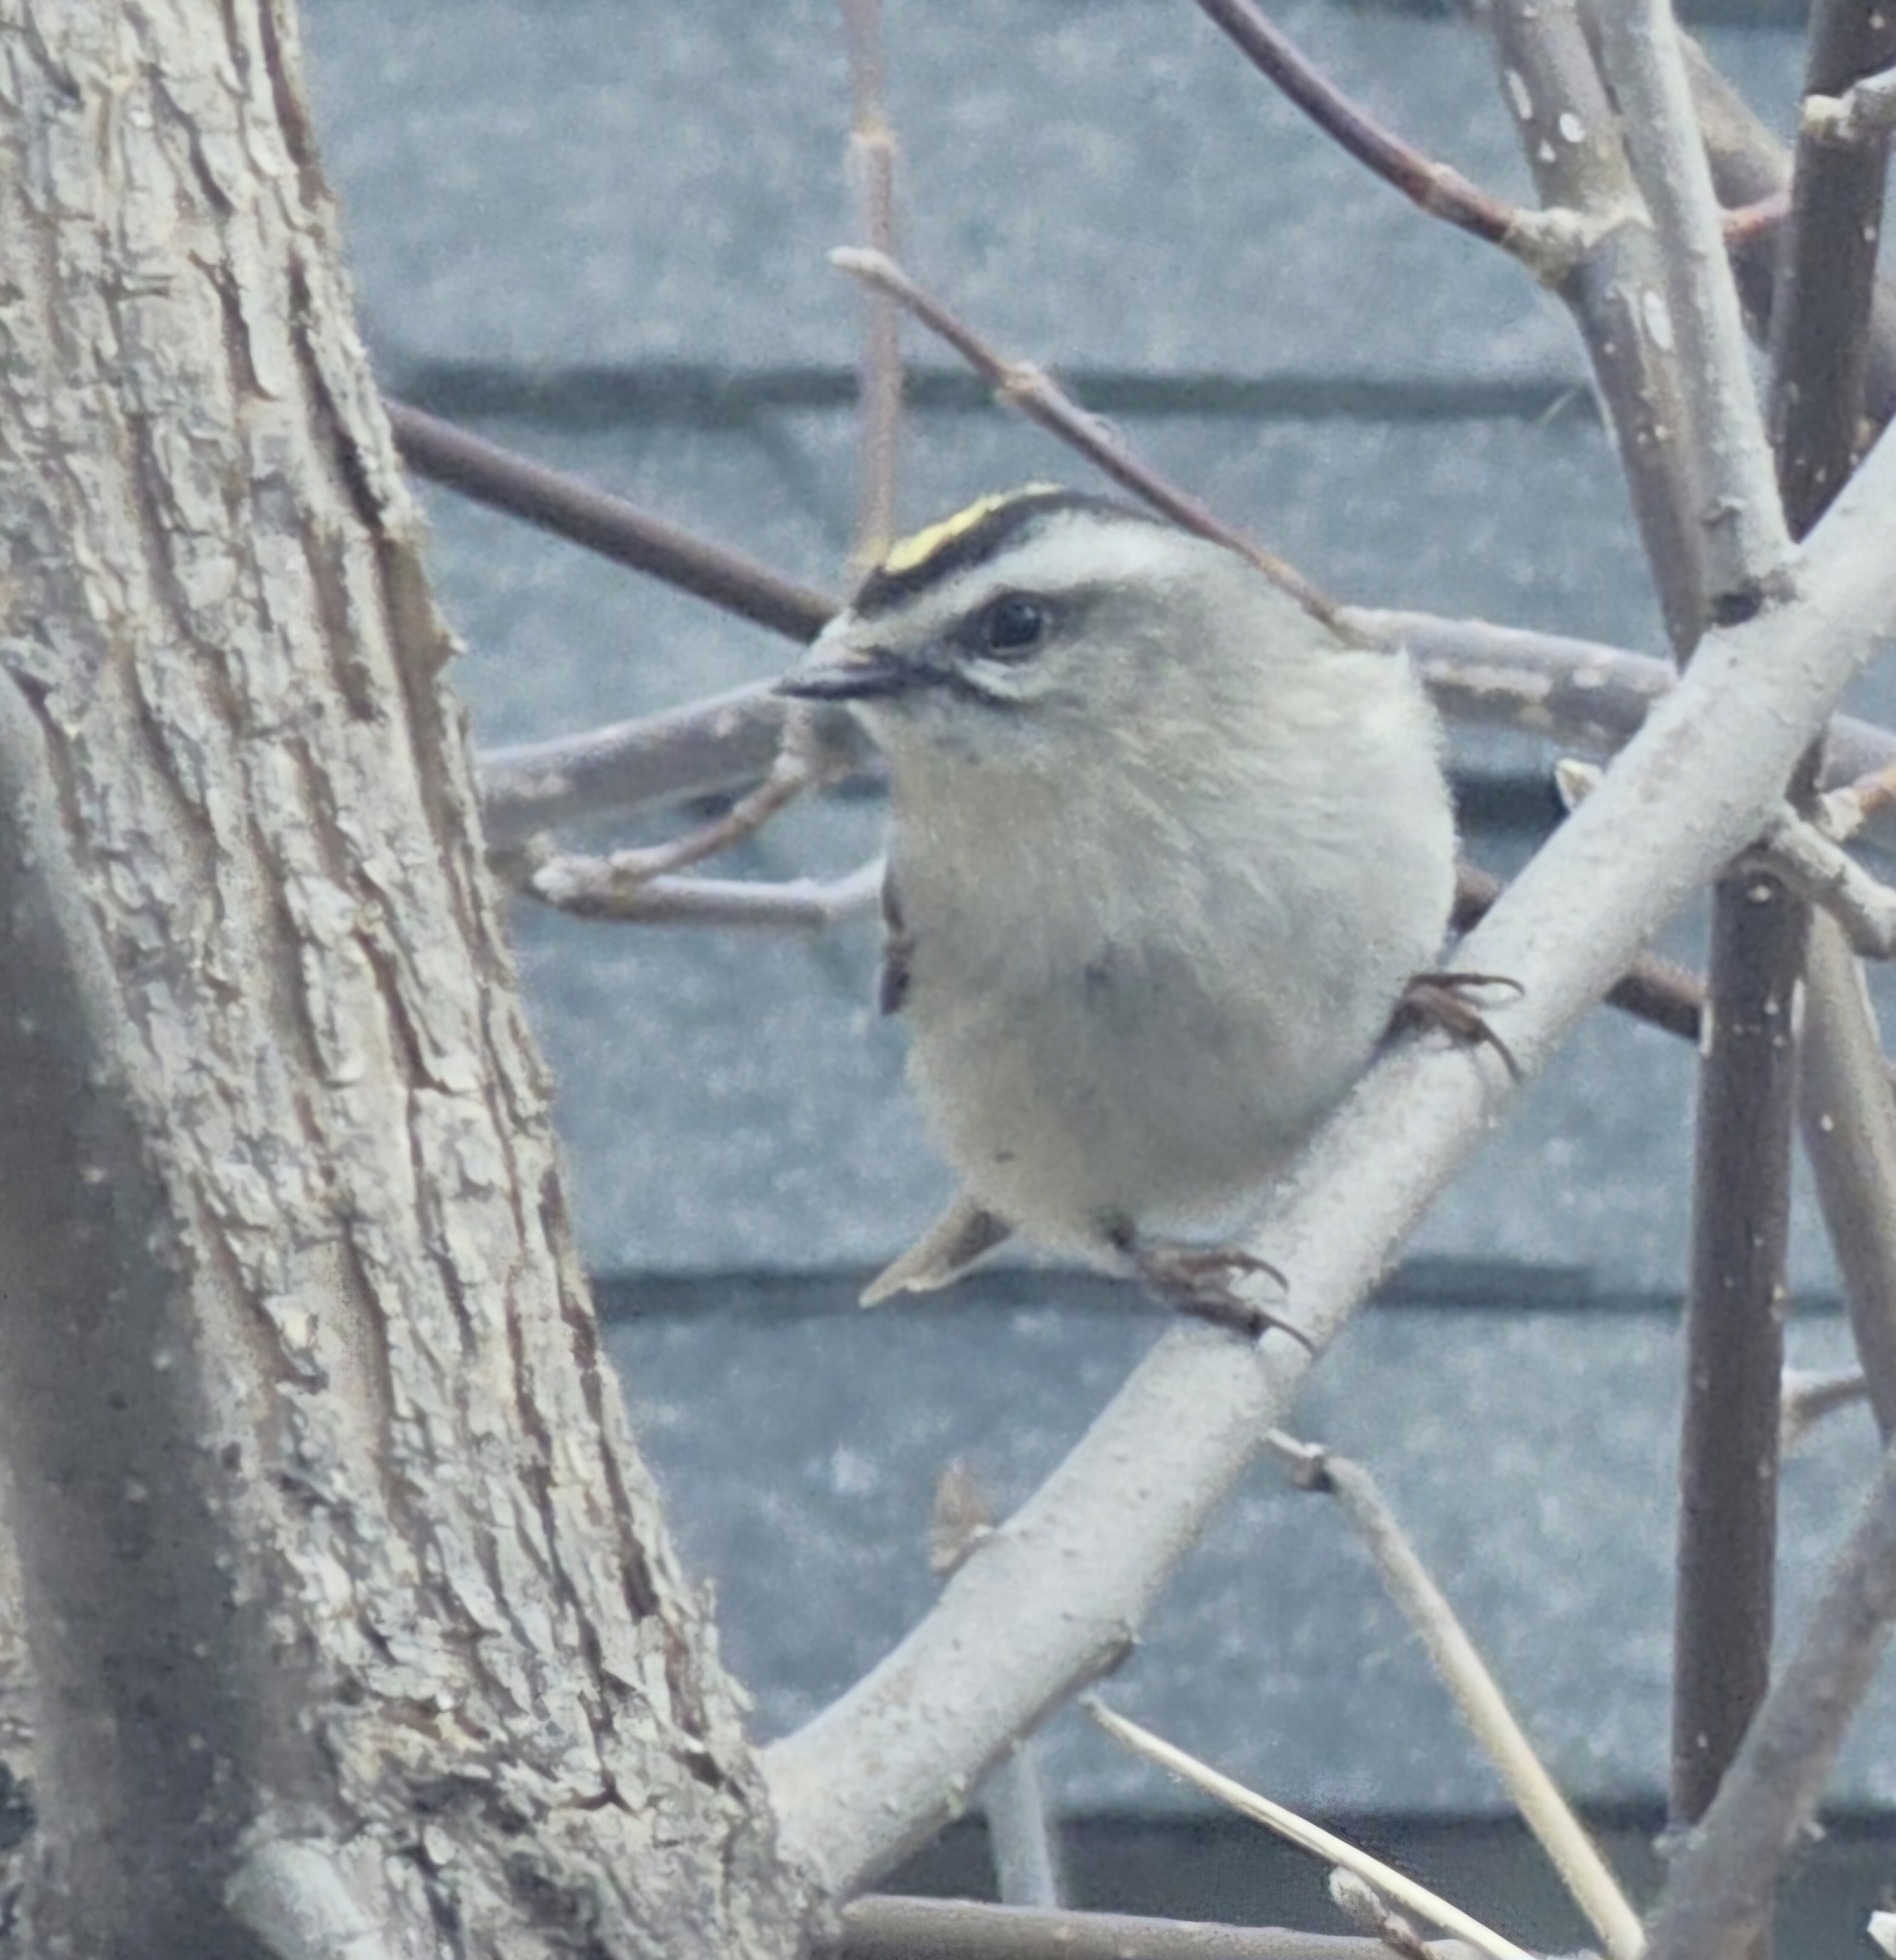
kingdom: Animalia
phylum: Chordata
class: Aves
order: Passeriformes
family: Regulidae
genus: Regulus
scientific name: Regulus satrapa
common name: Golden-crowned kinglet
